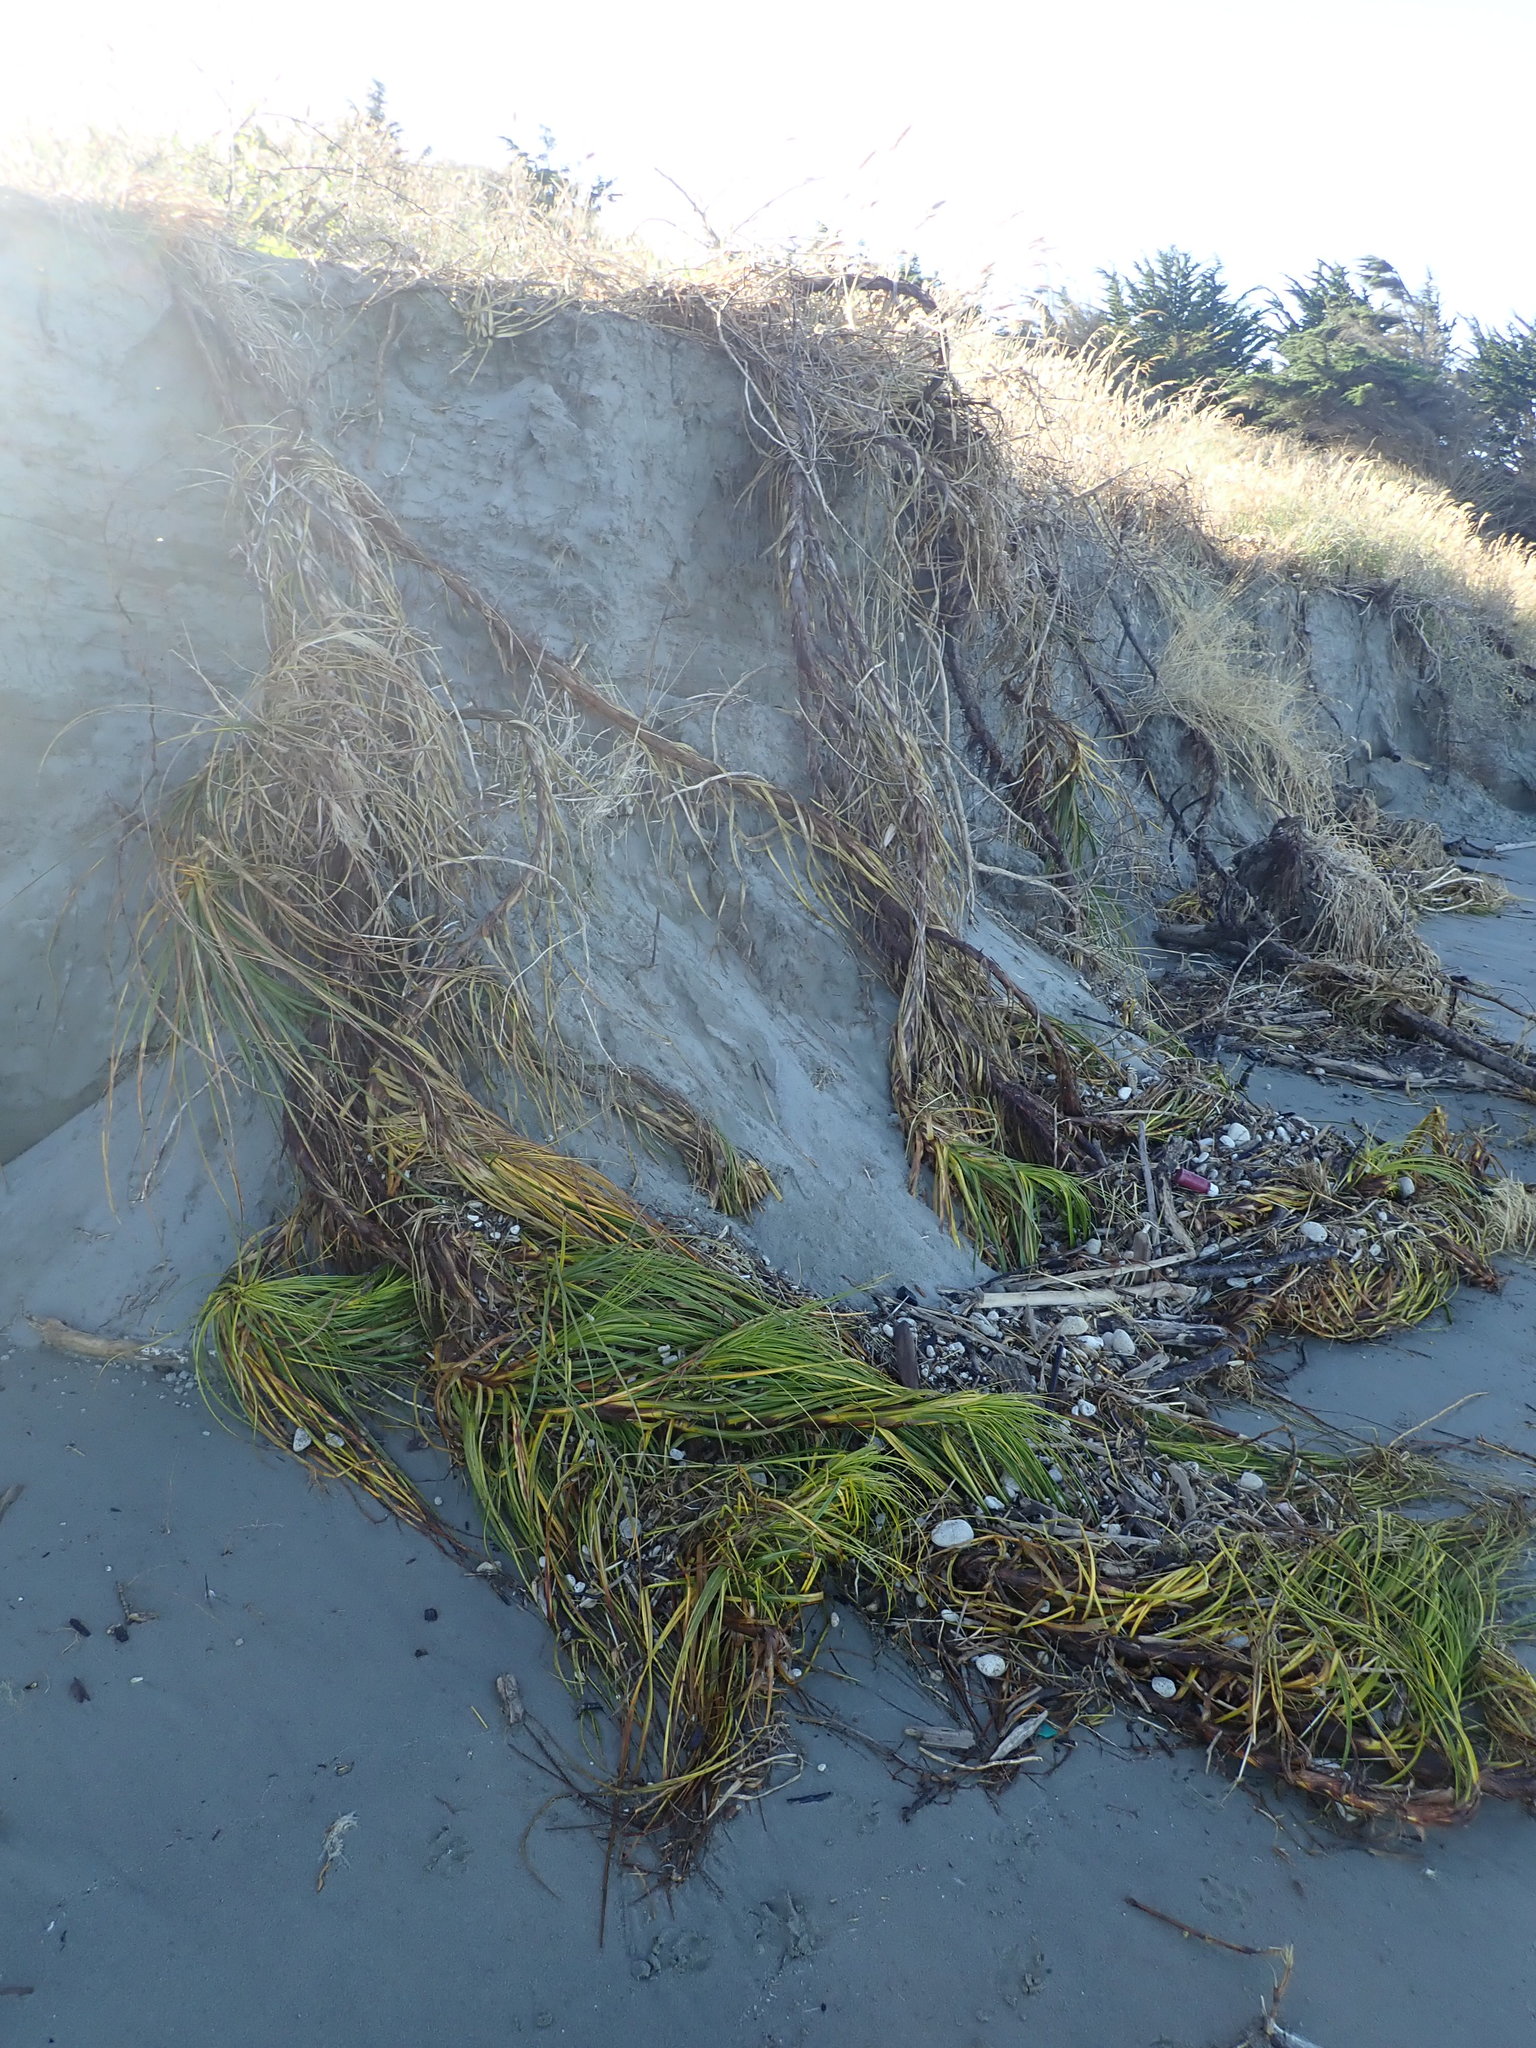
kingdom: Plantae
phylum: Tracheophyta
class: Liliopsida
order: Poales
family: Cyperaceae
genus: Ficinia
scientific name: Ficinia spiralis
